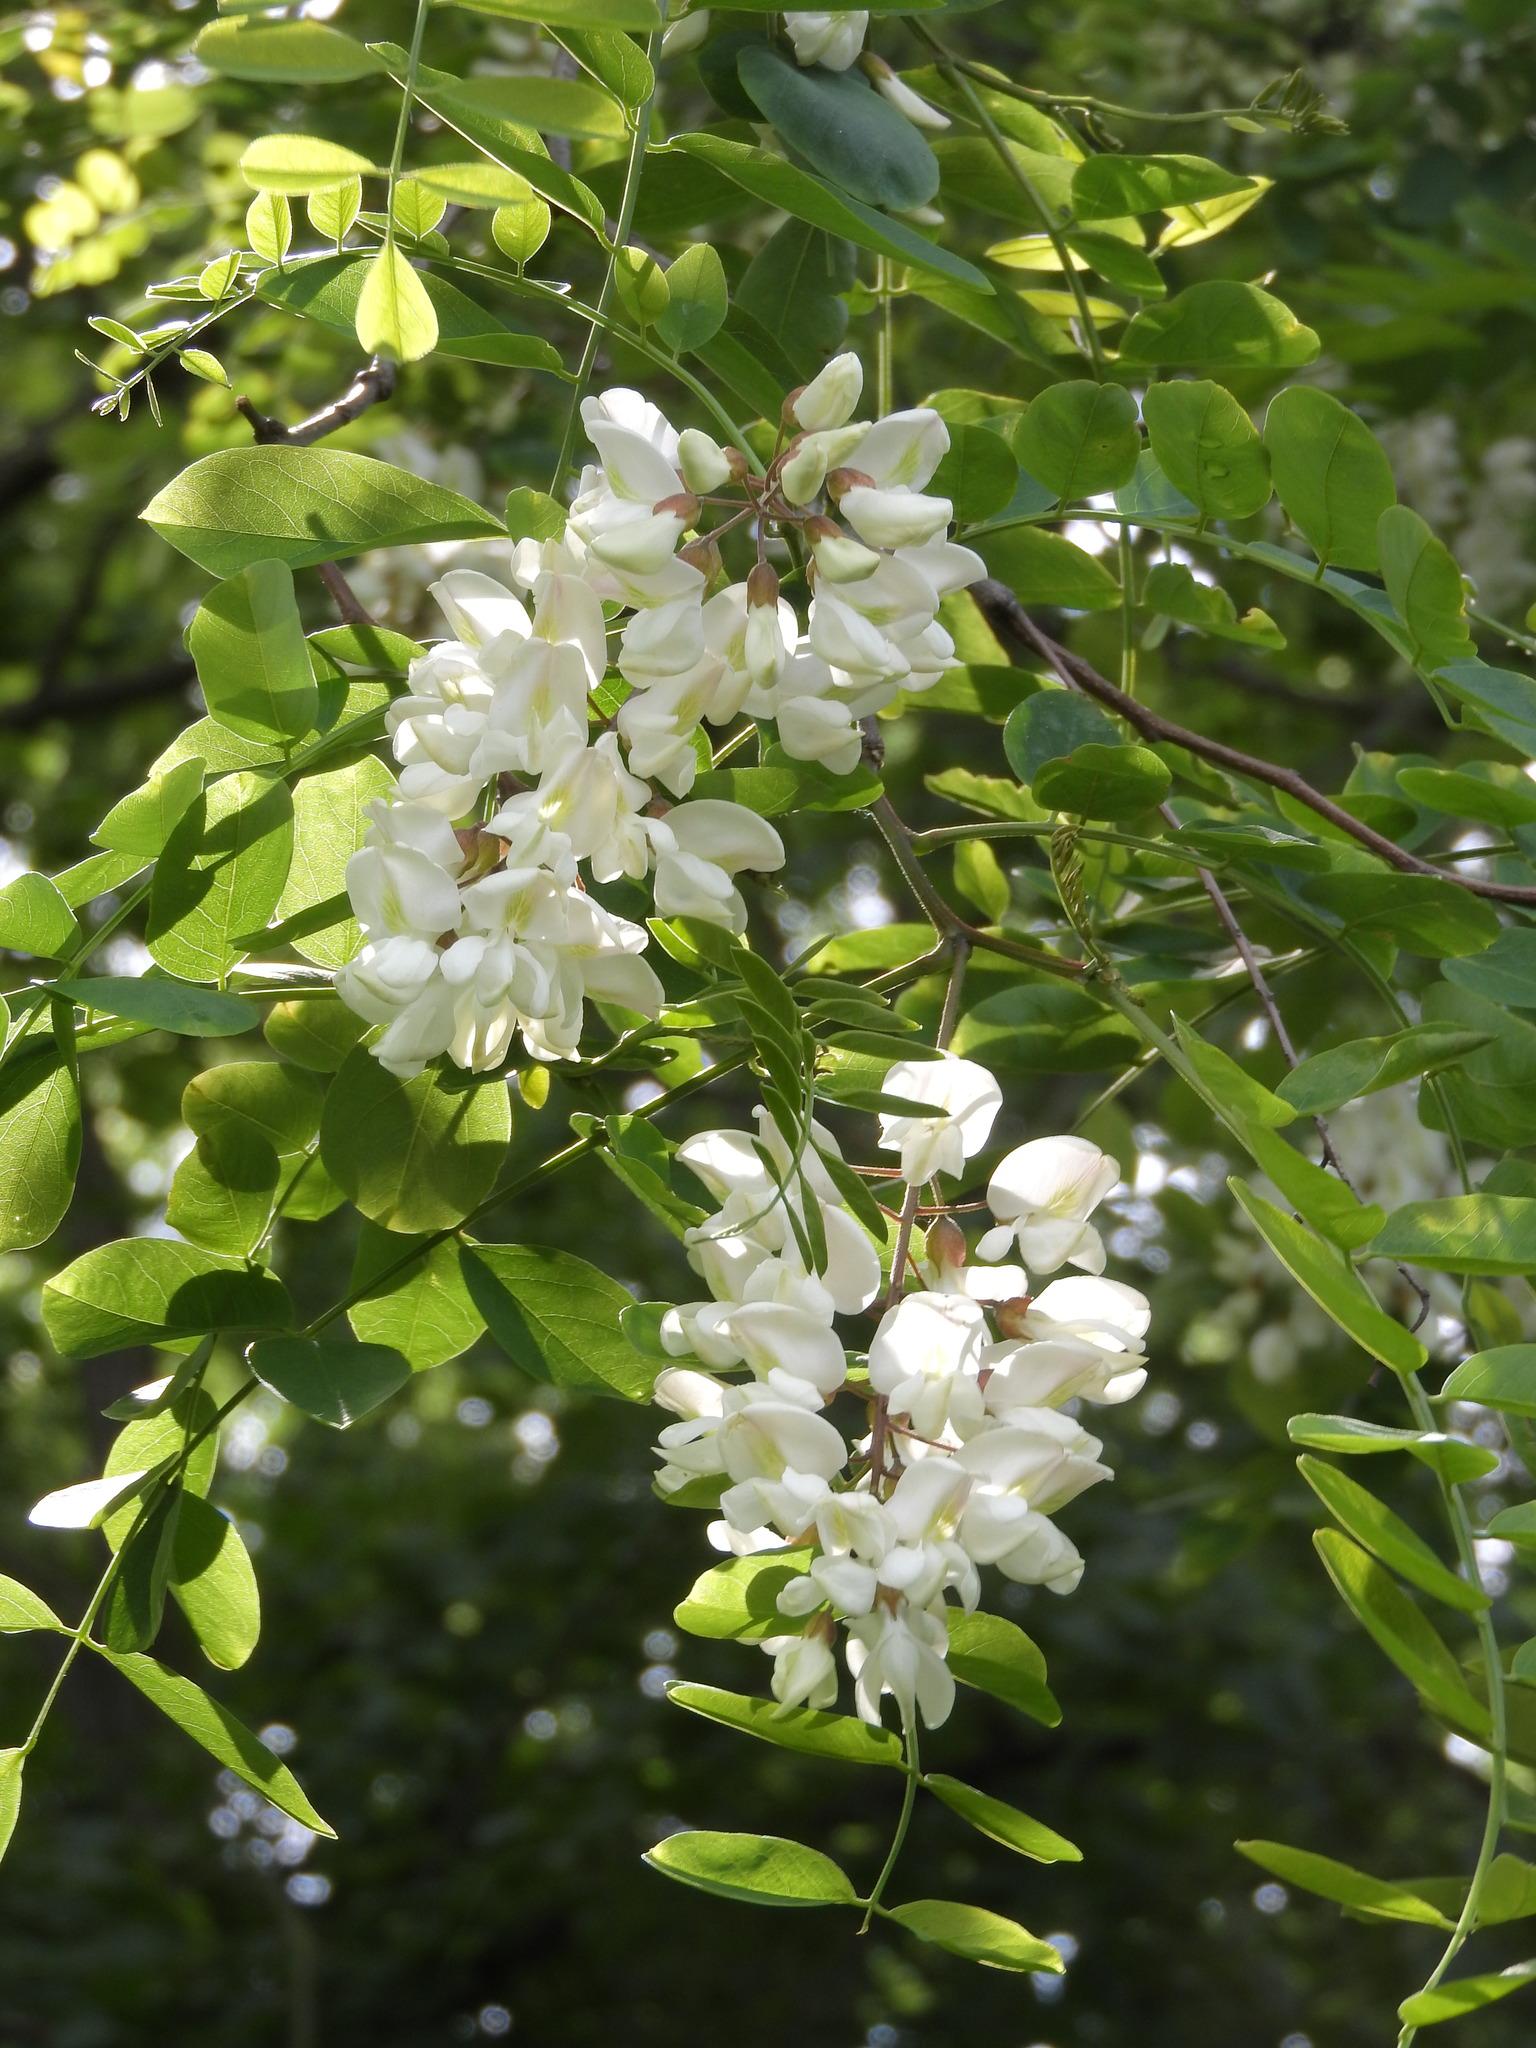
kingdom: Plantae
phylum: Tracheophyta
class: Magnoliopsida
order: Fabales
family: Fabaceae
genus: Robinia
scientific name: Robinia pseudoacacia
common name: Black locust
